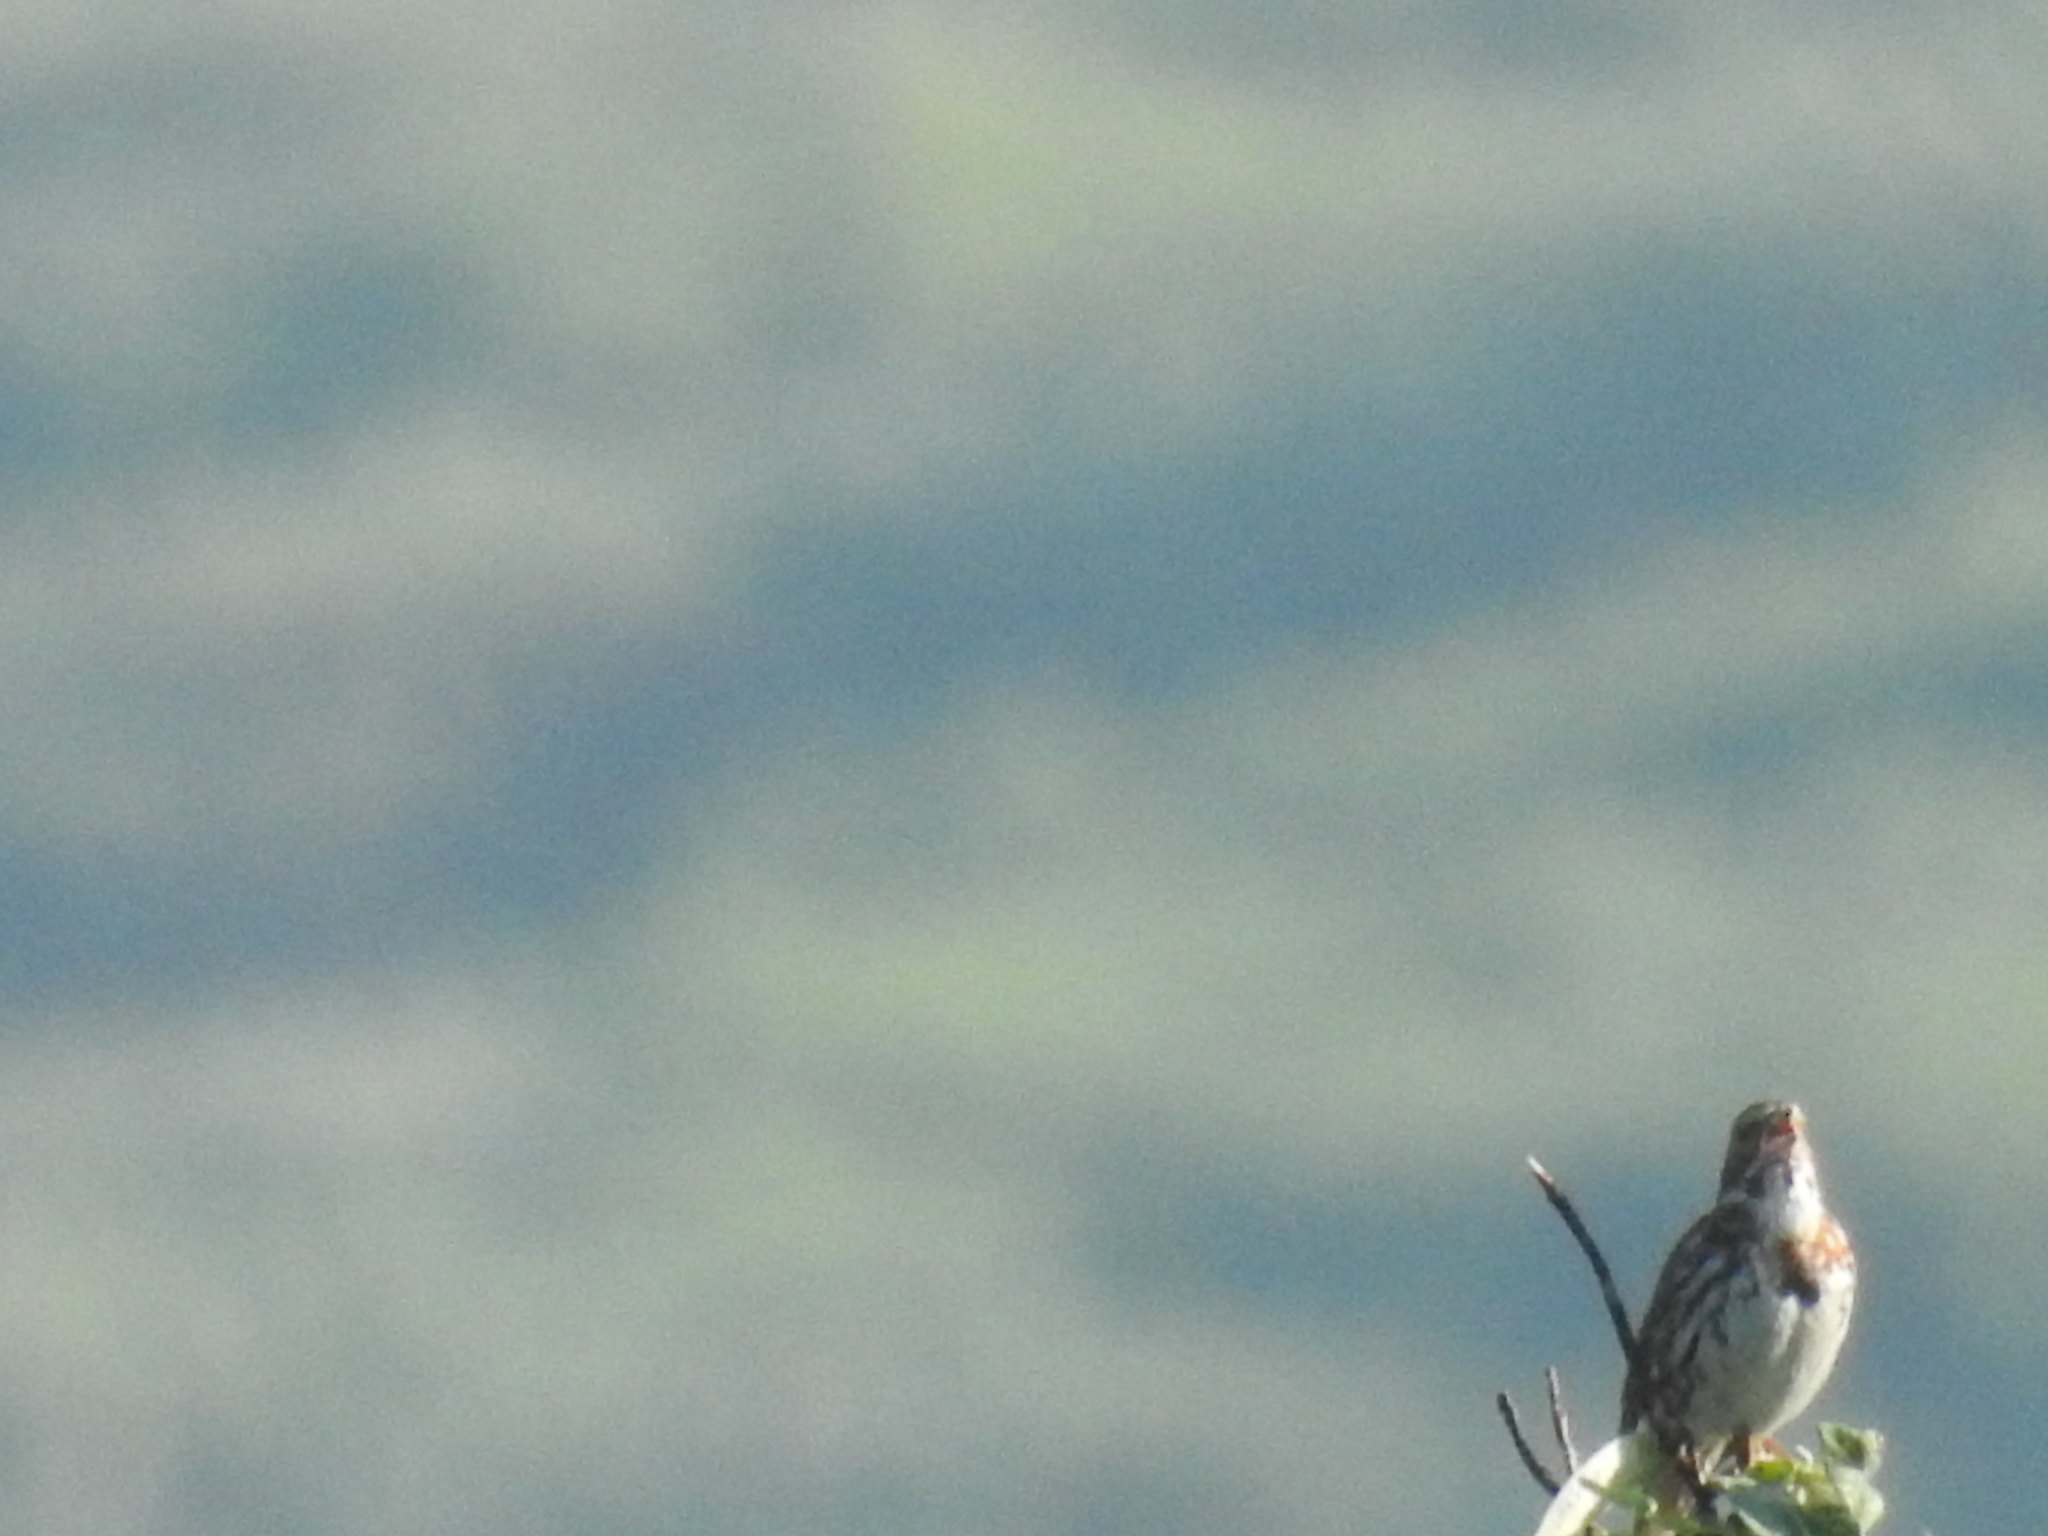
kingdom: Animalia
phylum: Chordata
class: Aves
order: Passeriformes
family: Passerellidae
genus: Passerella
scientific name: Passerella iliaca
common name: Fox sparrow
